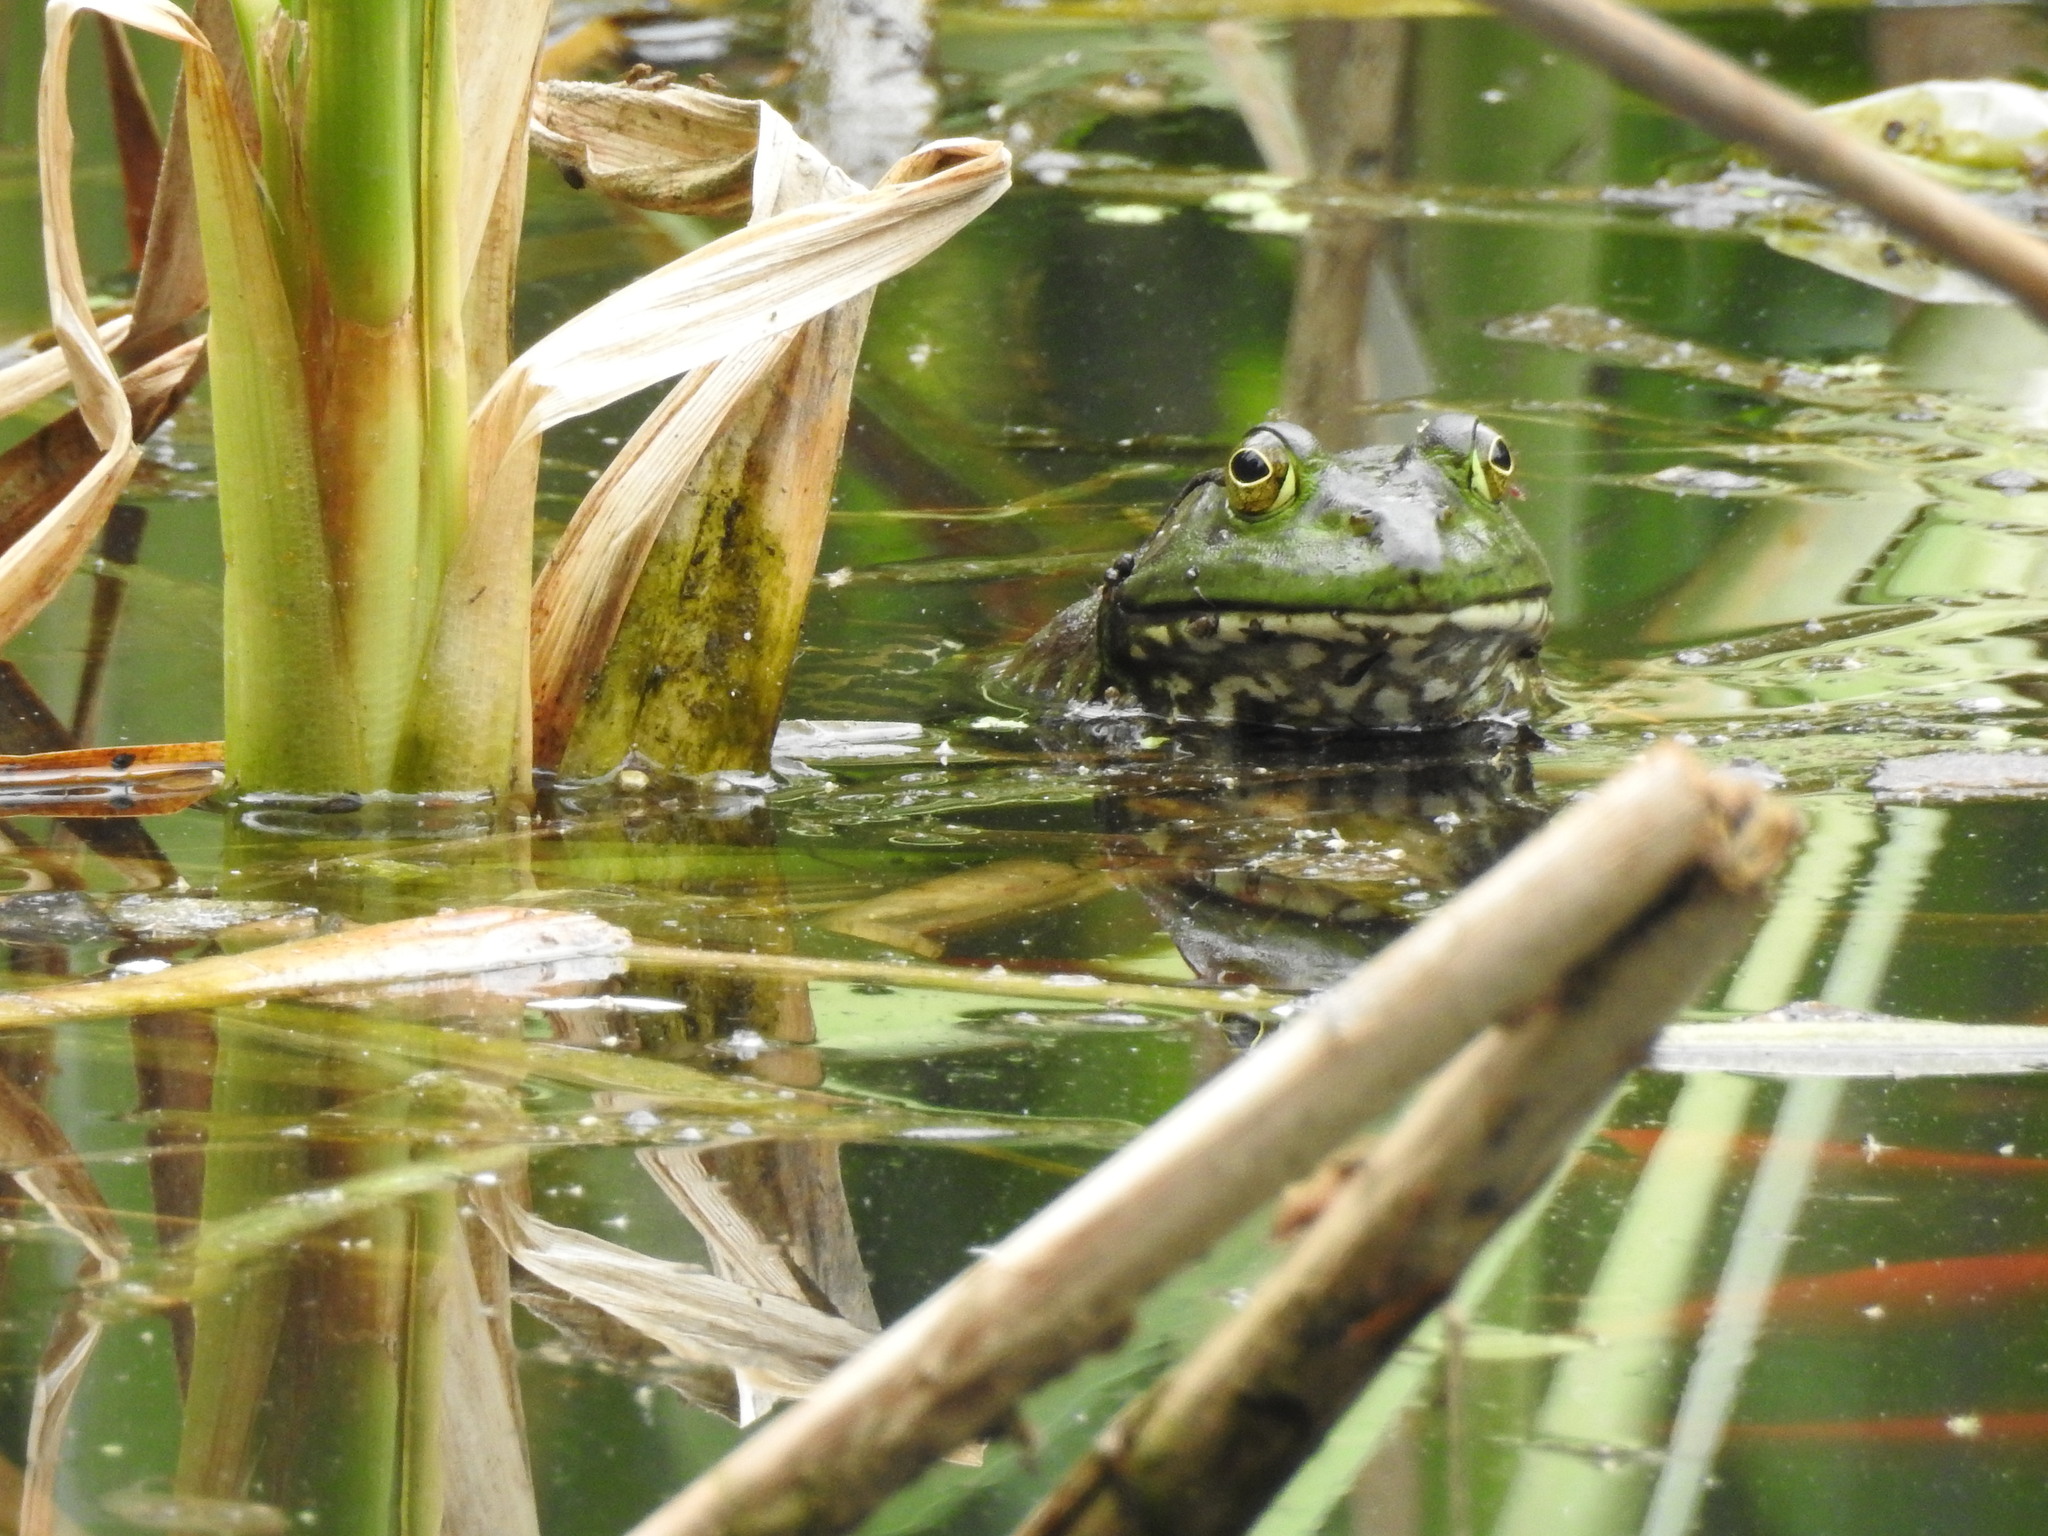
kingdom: Animalia
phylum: Chordata
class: Amphibia
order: Anura
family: Ranidae
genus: Lithobates
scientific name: Lithobates catesbeianus
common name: American bullfrog
